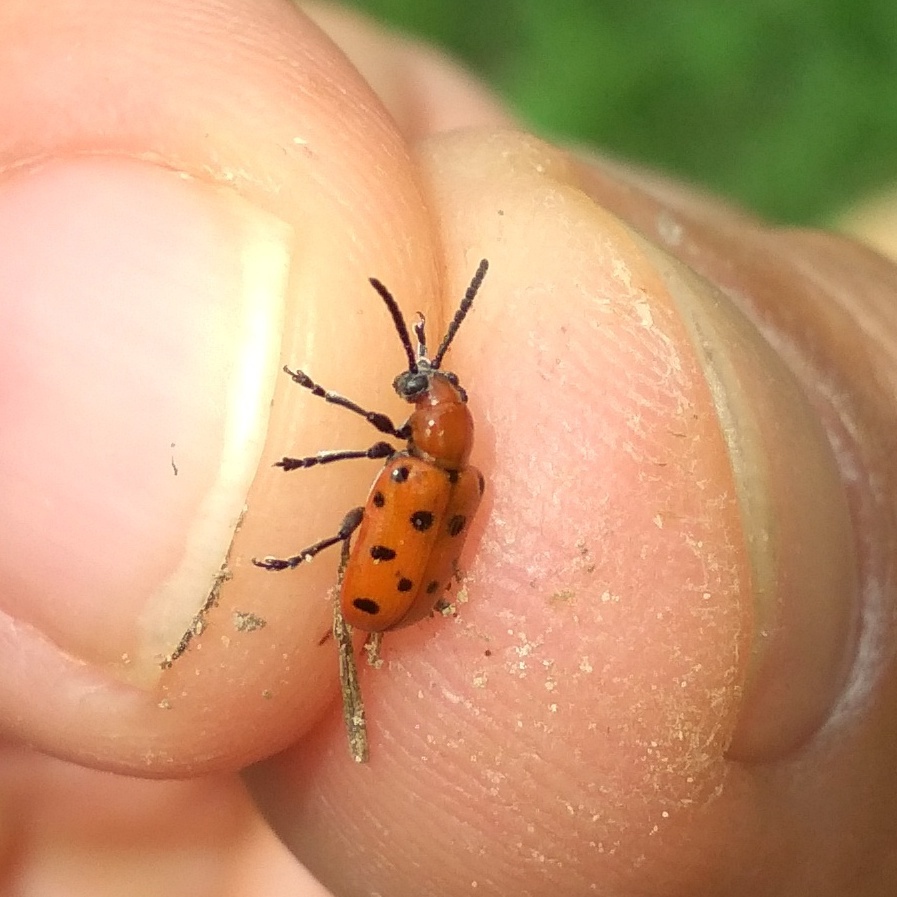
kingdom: Animalia
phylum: Arthropoda
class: Insecta
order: Coleoptera
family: Chrysomelidae
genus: Crioceris
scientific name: Crioceris duodecimpunctata
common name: Twelve-spotted asparagus beetle
